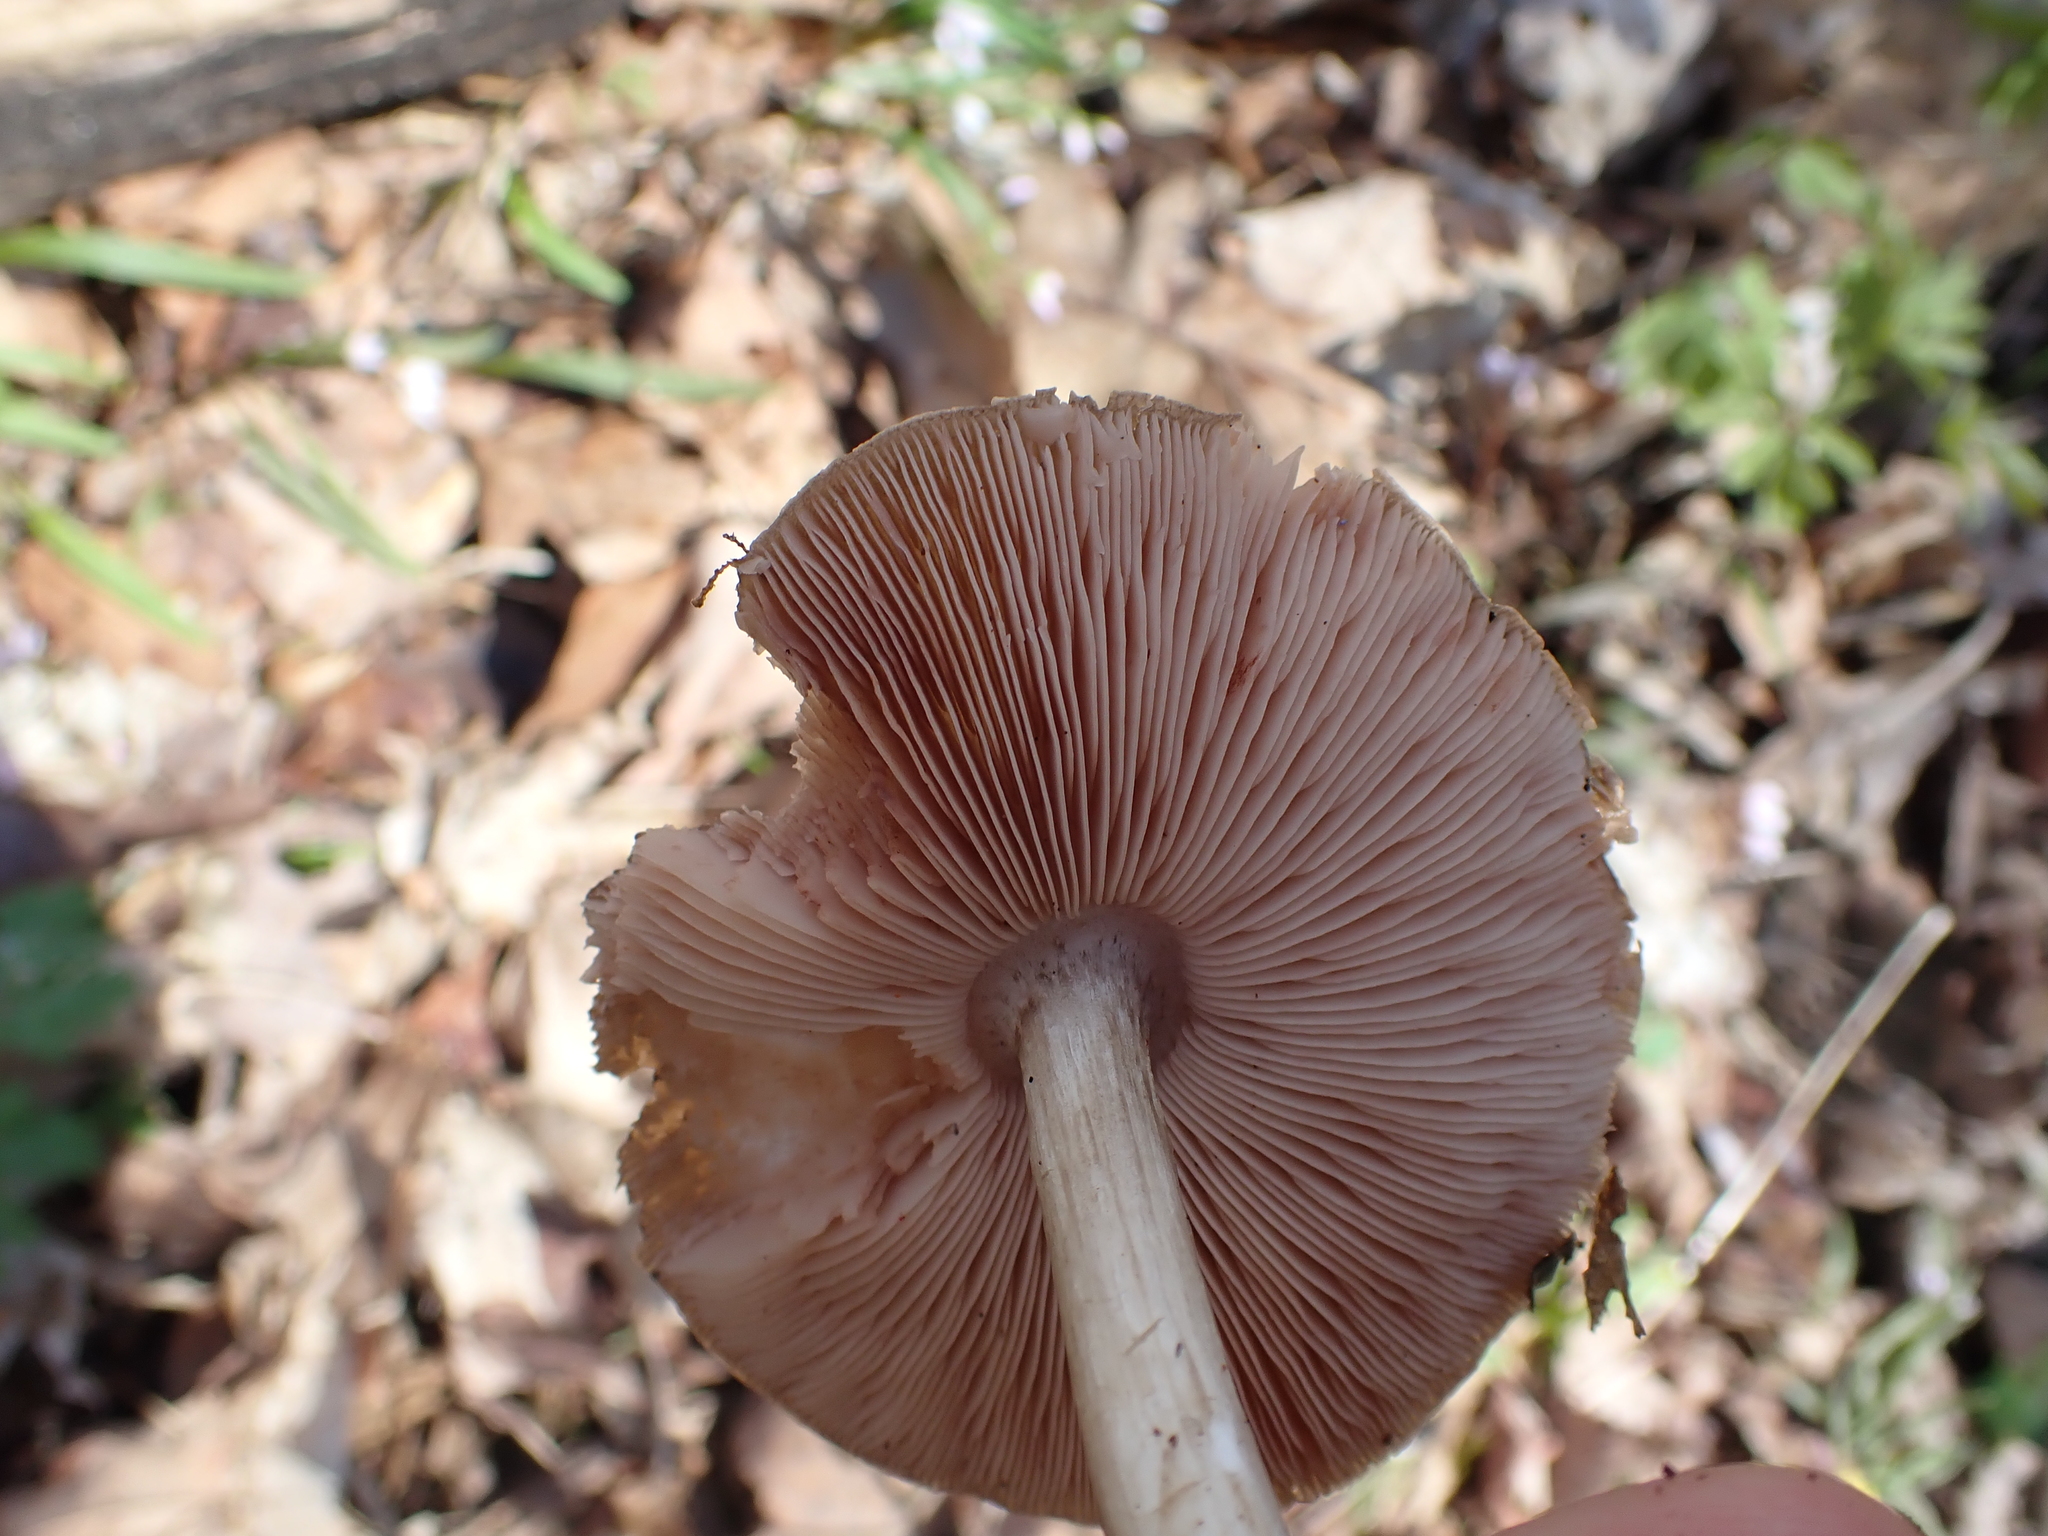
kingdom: Fungi
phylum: Basidiomycota
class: Agaricomycetes
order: Agaricales
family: Pluteaceae
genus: Pluteus
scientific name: Pluteus cervinus
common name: Deer shield
